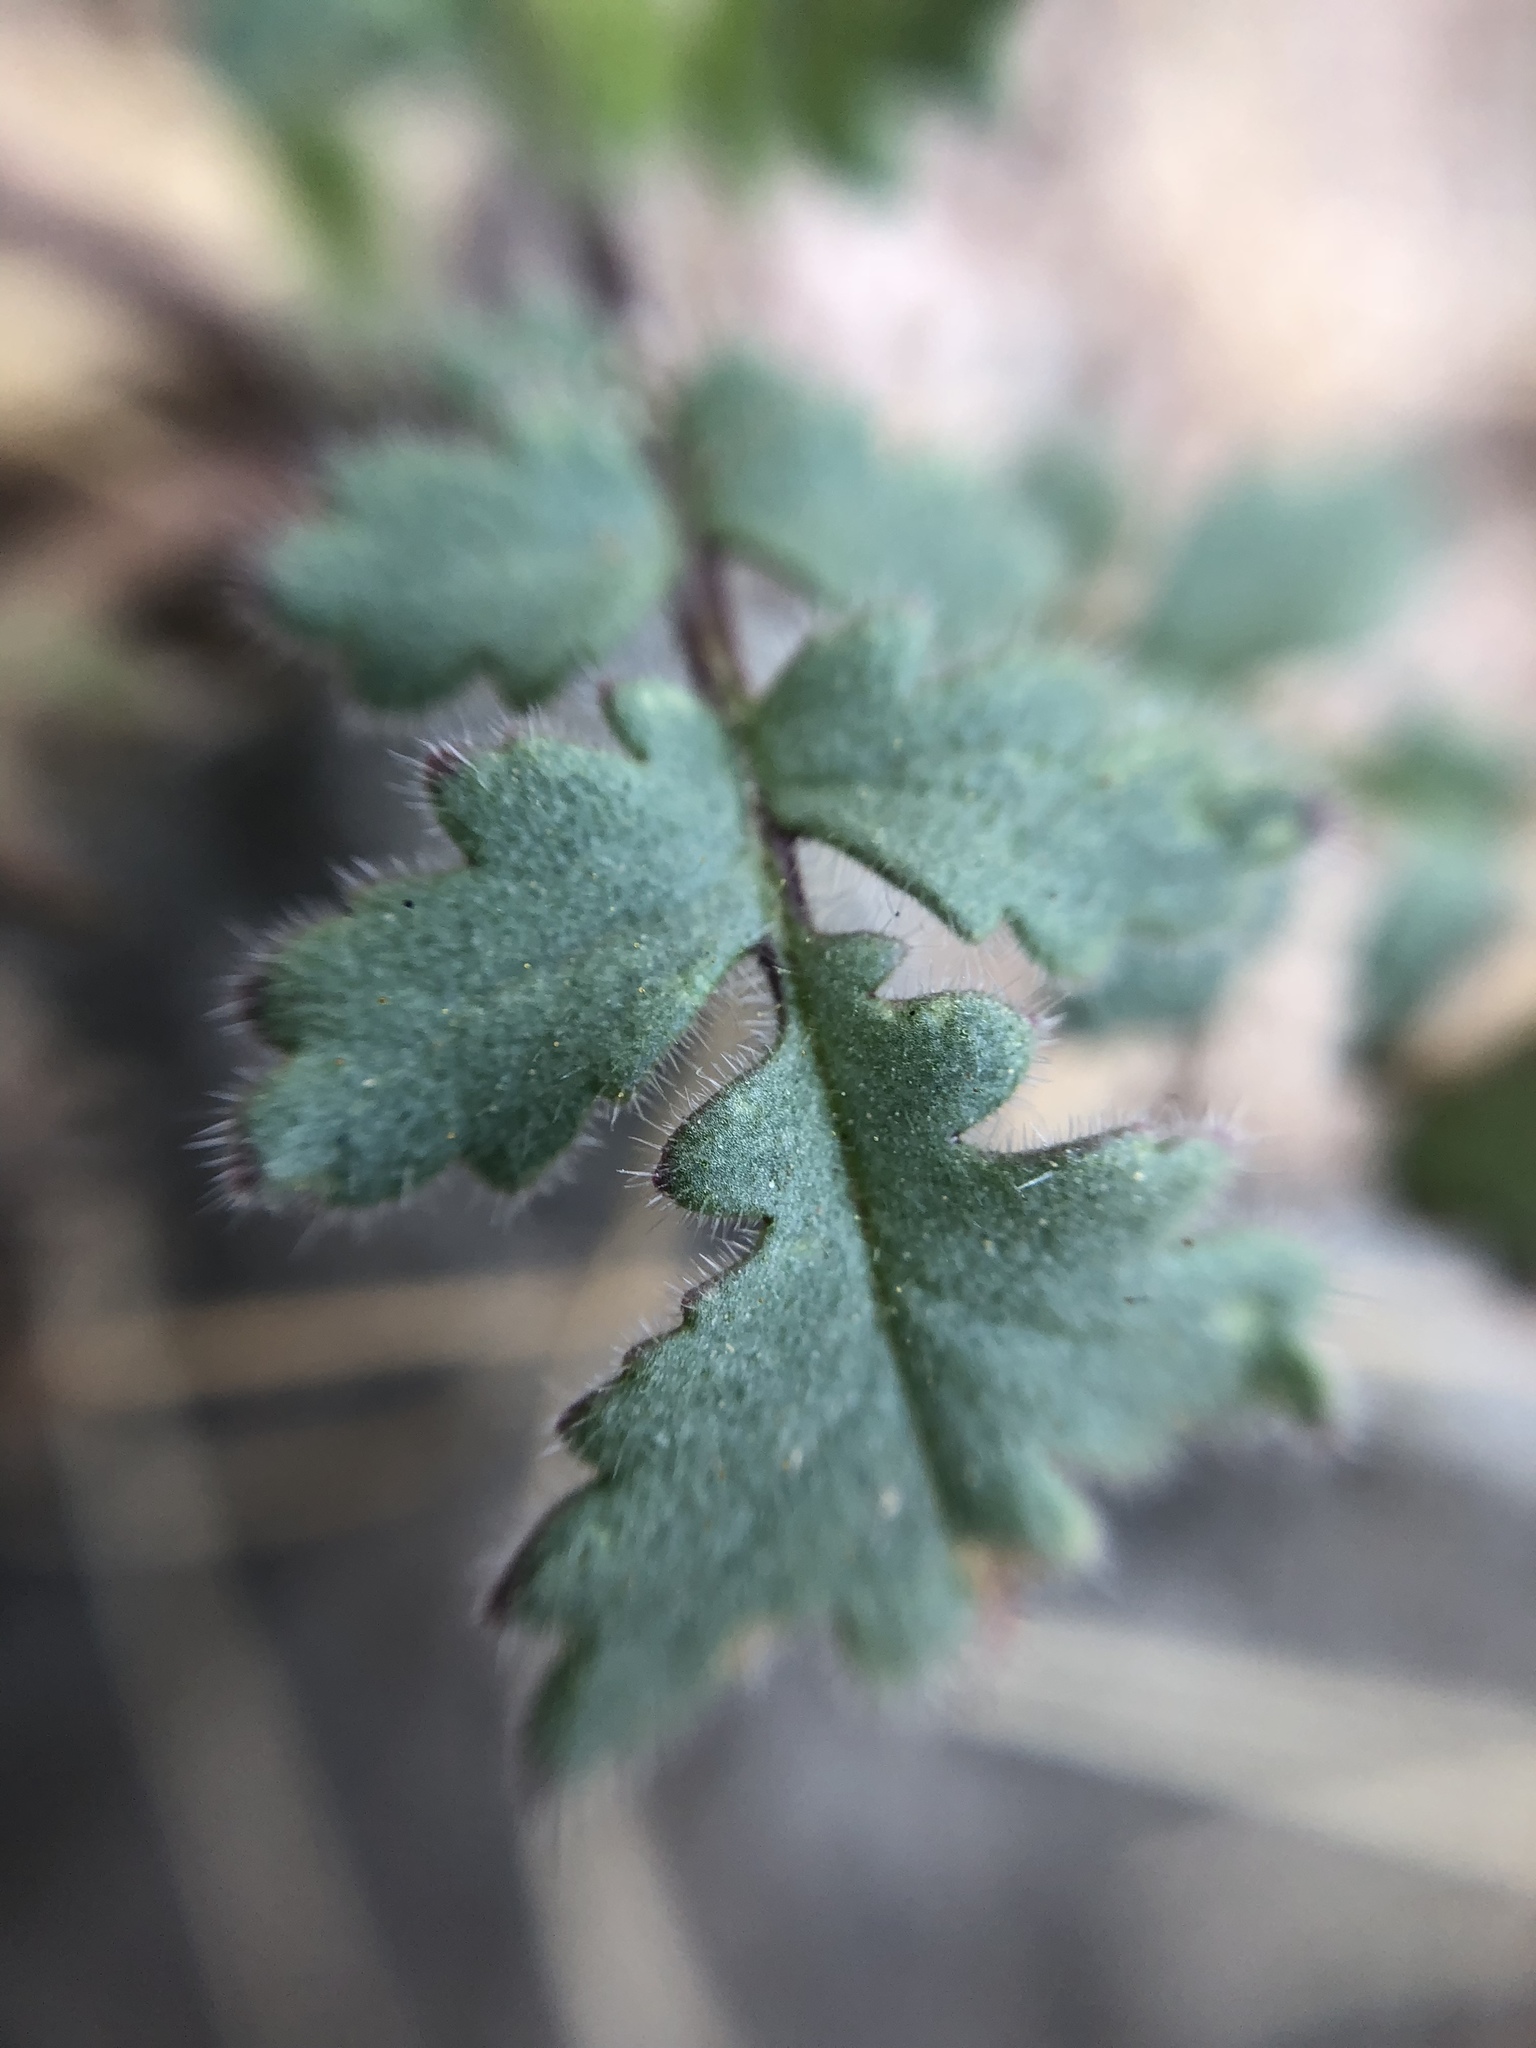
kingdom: Plantae
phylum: Tracheophyta
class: Magnoliopsida
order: Boraginales
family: Hydrophyllaceae
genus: Phacelia
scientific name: Phacelia crenulata
